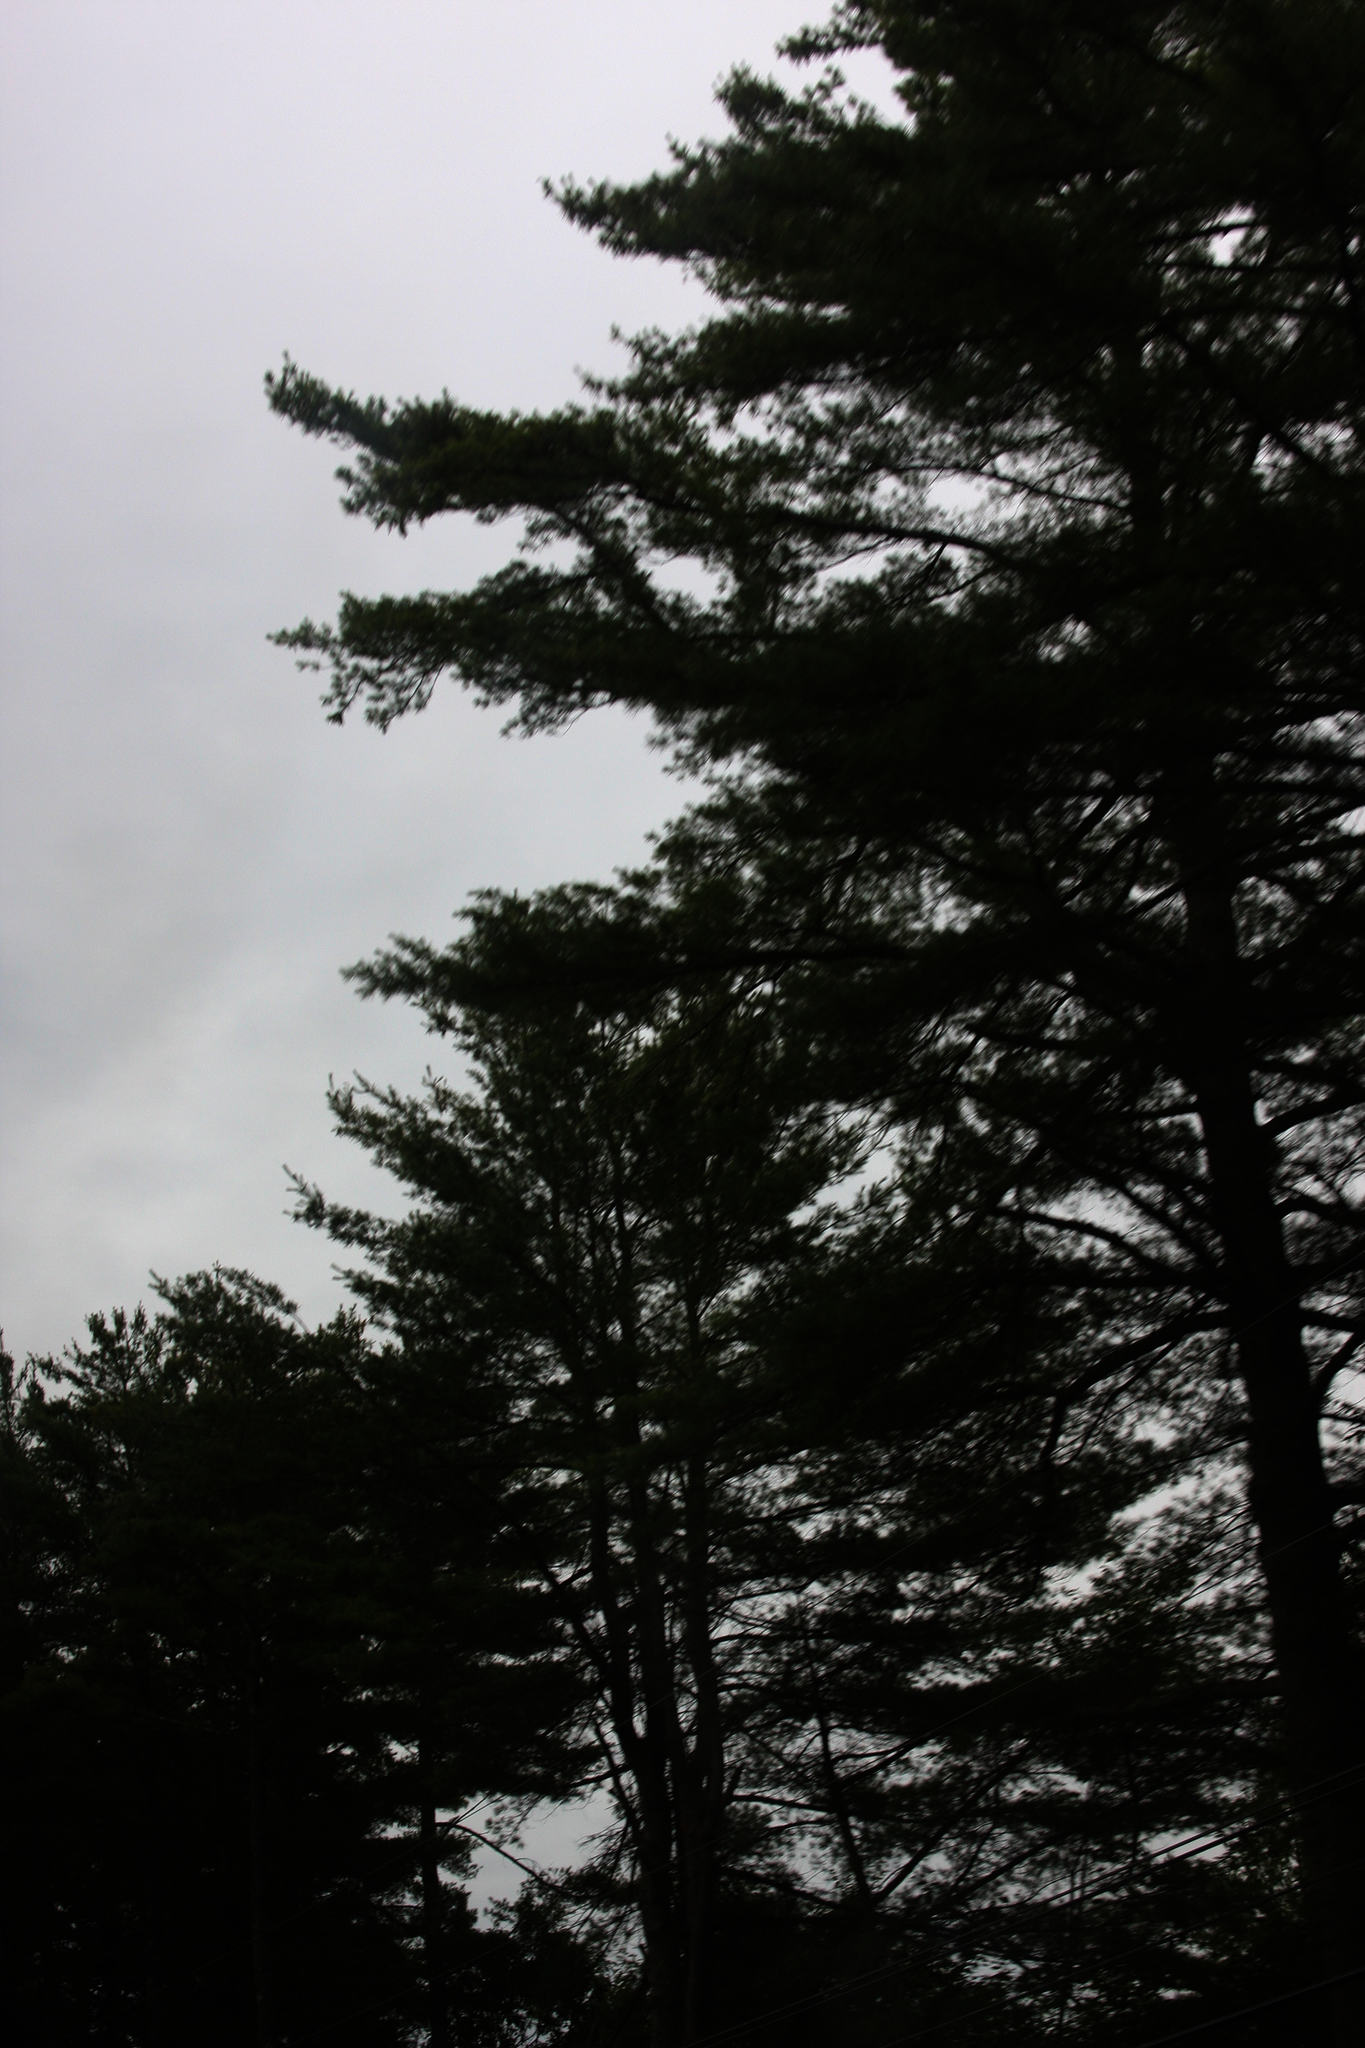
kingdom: Plantae
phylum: Tracheophyta
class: Pinopsida
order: Pinales
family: Pinaceae
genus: Pinus
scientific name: Pinus strobus
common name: Weymouth pine
